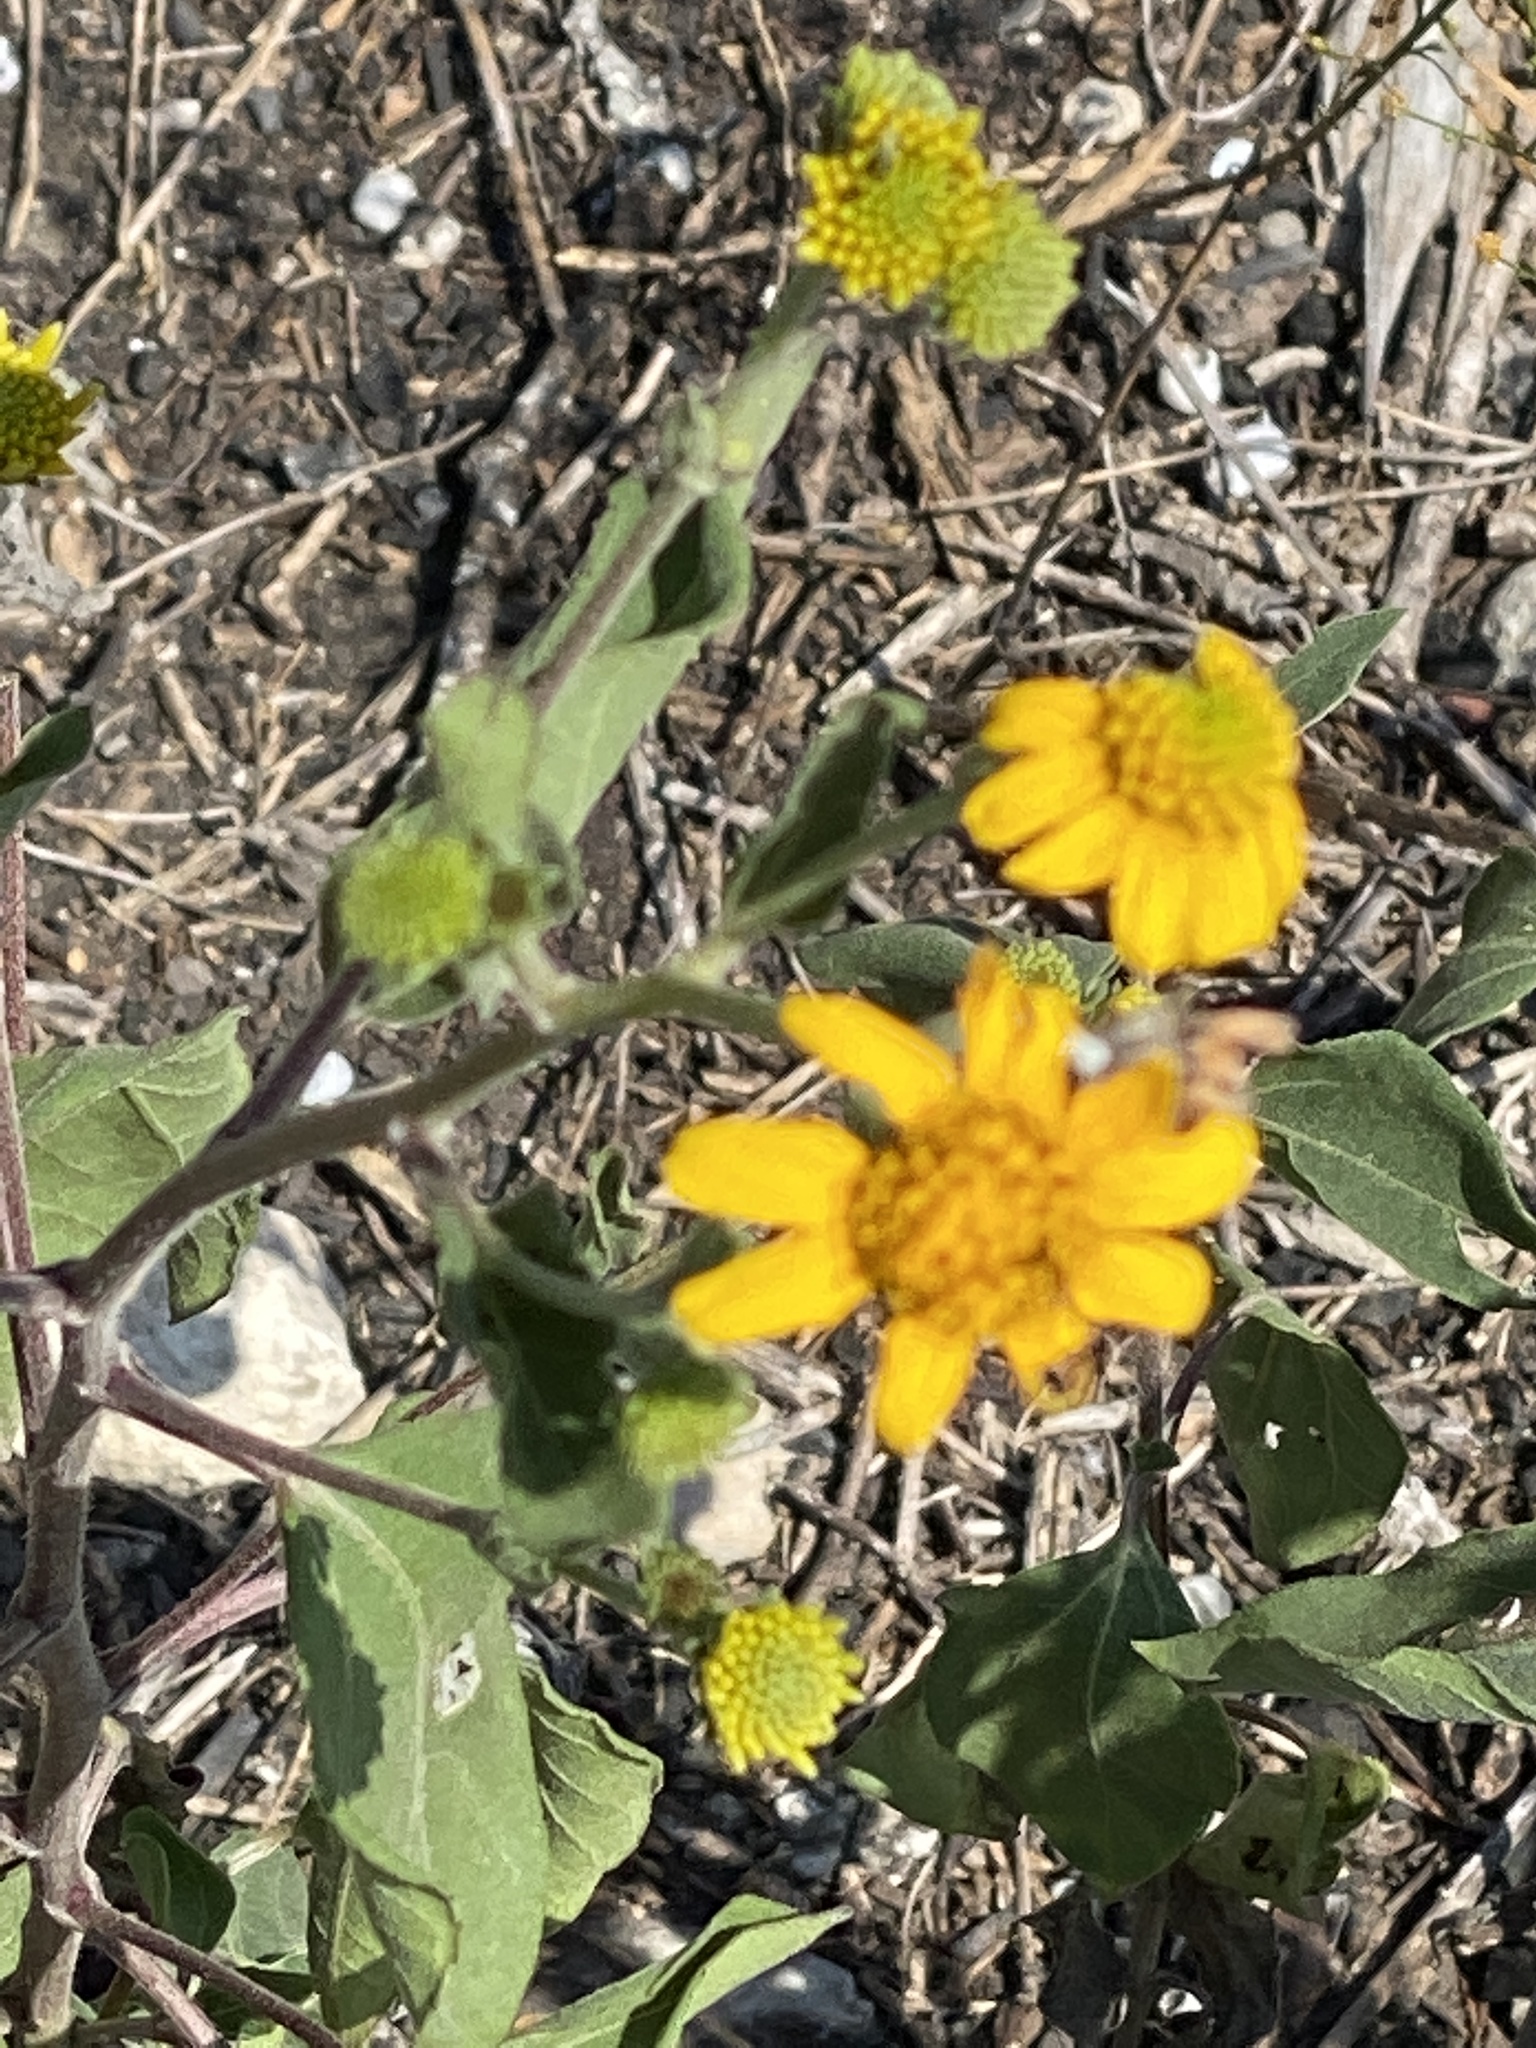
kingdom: Plantae
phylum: Tracheophyta
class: Magnoliopsida
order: Asterales
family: Asteraceae
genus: Viguiera
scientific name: Viguiera dentata
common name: Toothleaf
